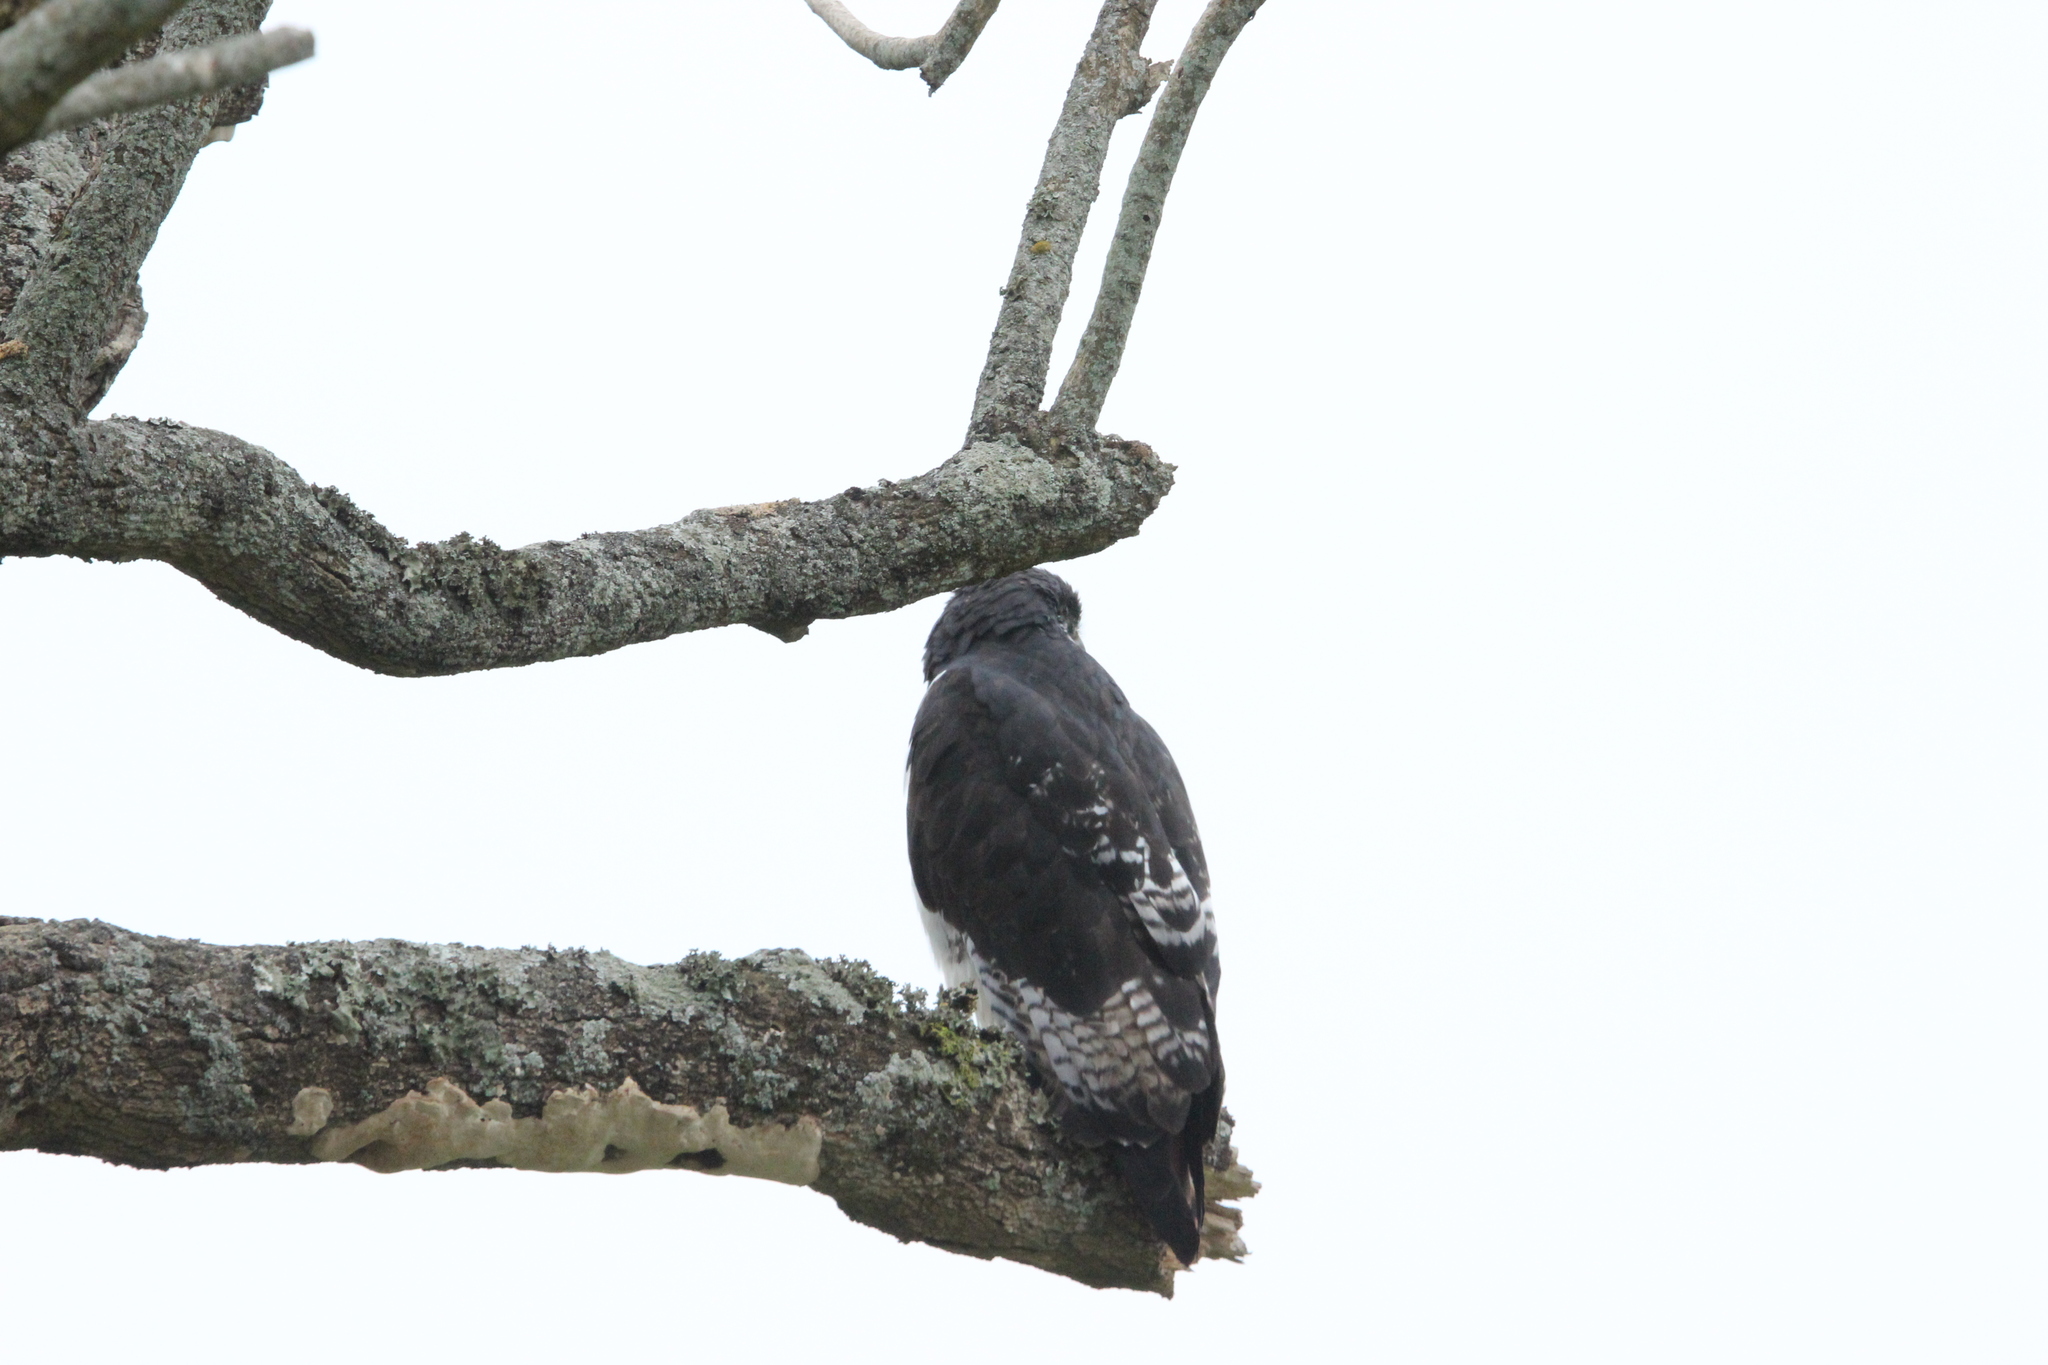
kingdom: Animalia
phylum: Chordata
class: Aves
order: Accipitriformes
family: Accipitridae
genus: Buteo
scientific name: Buteo augur
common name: Augur buzzard
